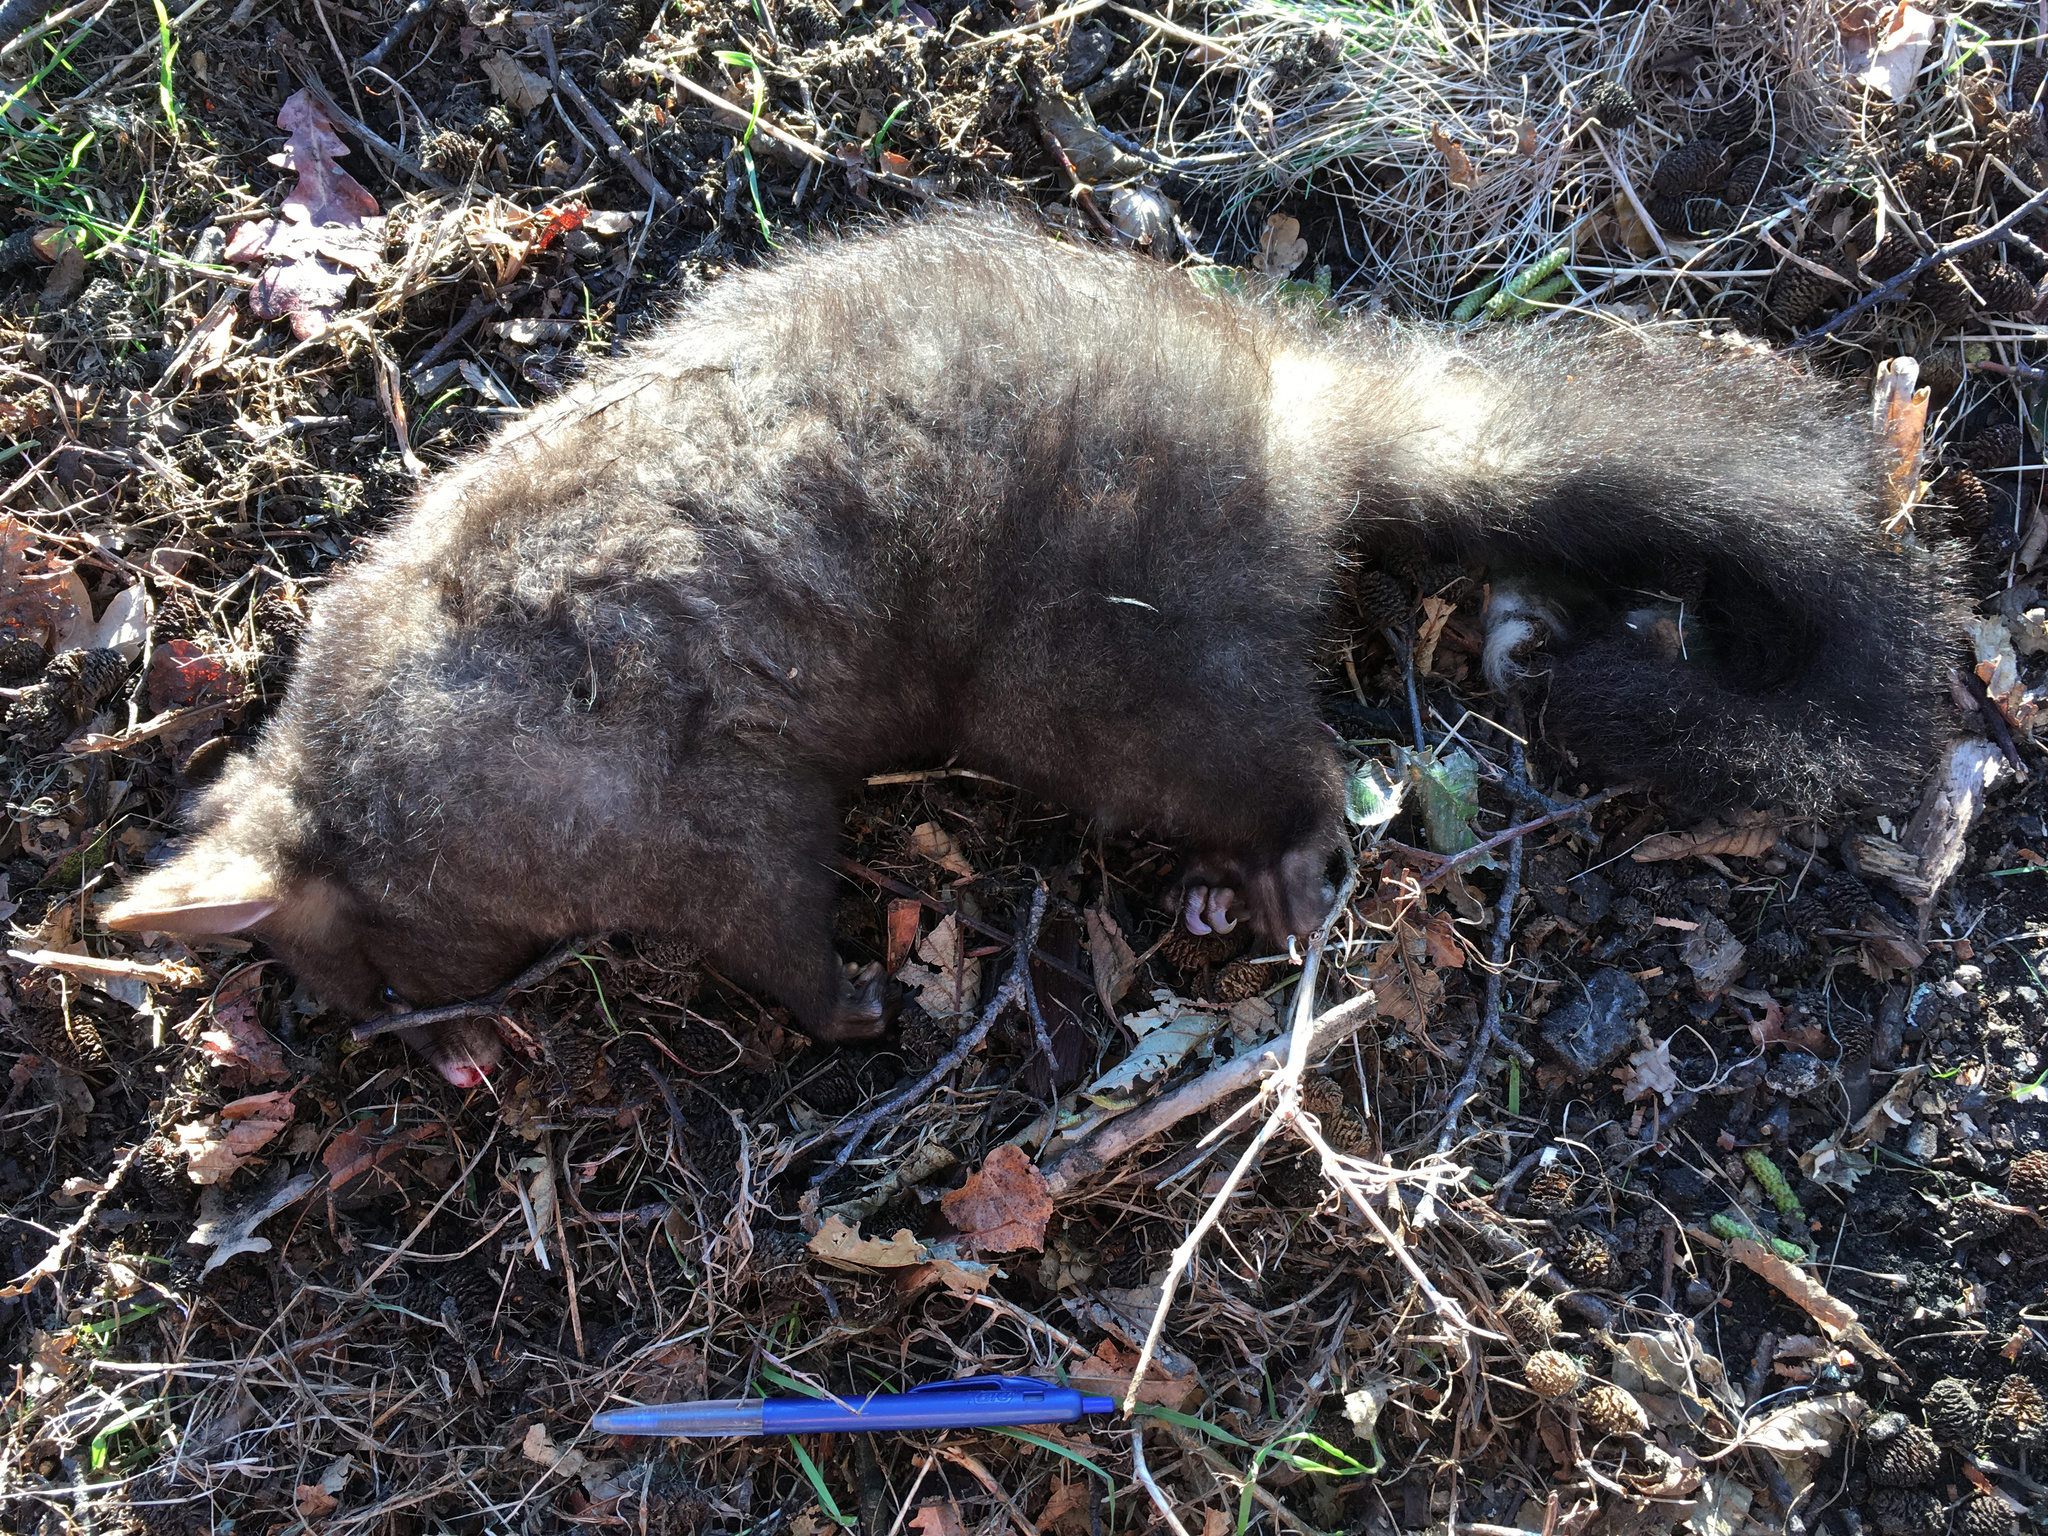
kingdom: Animalia
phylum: Chordata
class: Mammalia
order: Diprotodontia
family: Phalangeridae
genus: Trichosurus
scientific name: Trichosurus vulpecula
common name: Common brushtail
